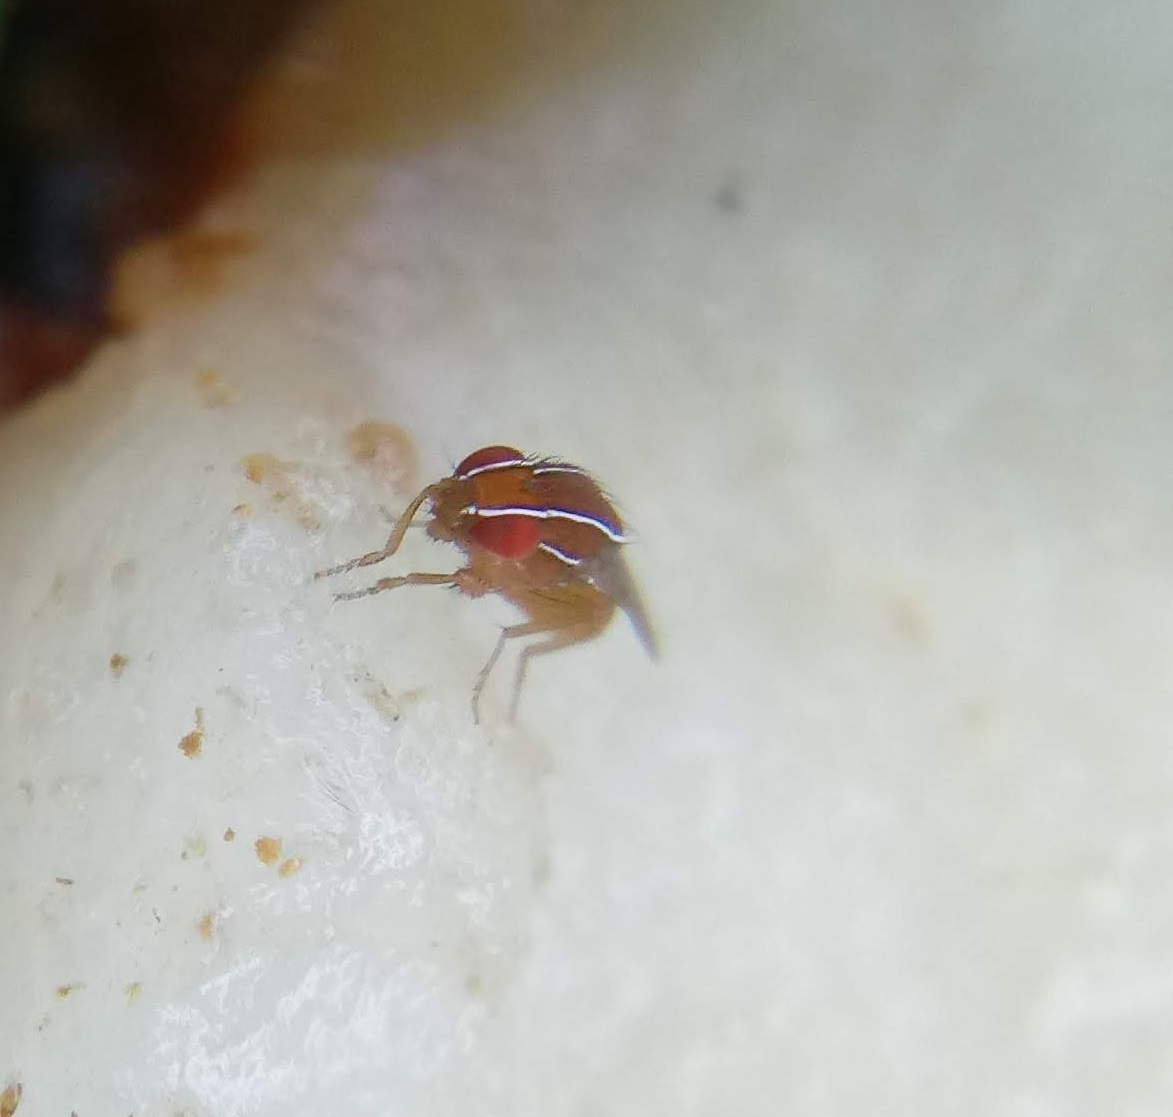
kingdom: Animalia
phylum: Arthropoda
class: Insecta
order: Diptera
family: Drosophilidae
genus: Zaprionus
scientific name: Zaprionus indianus
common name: African fig fly
